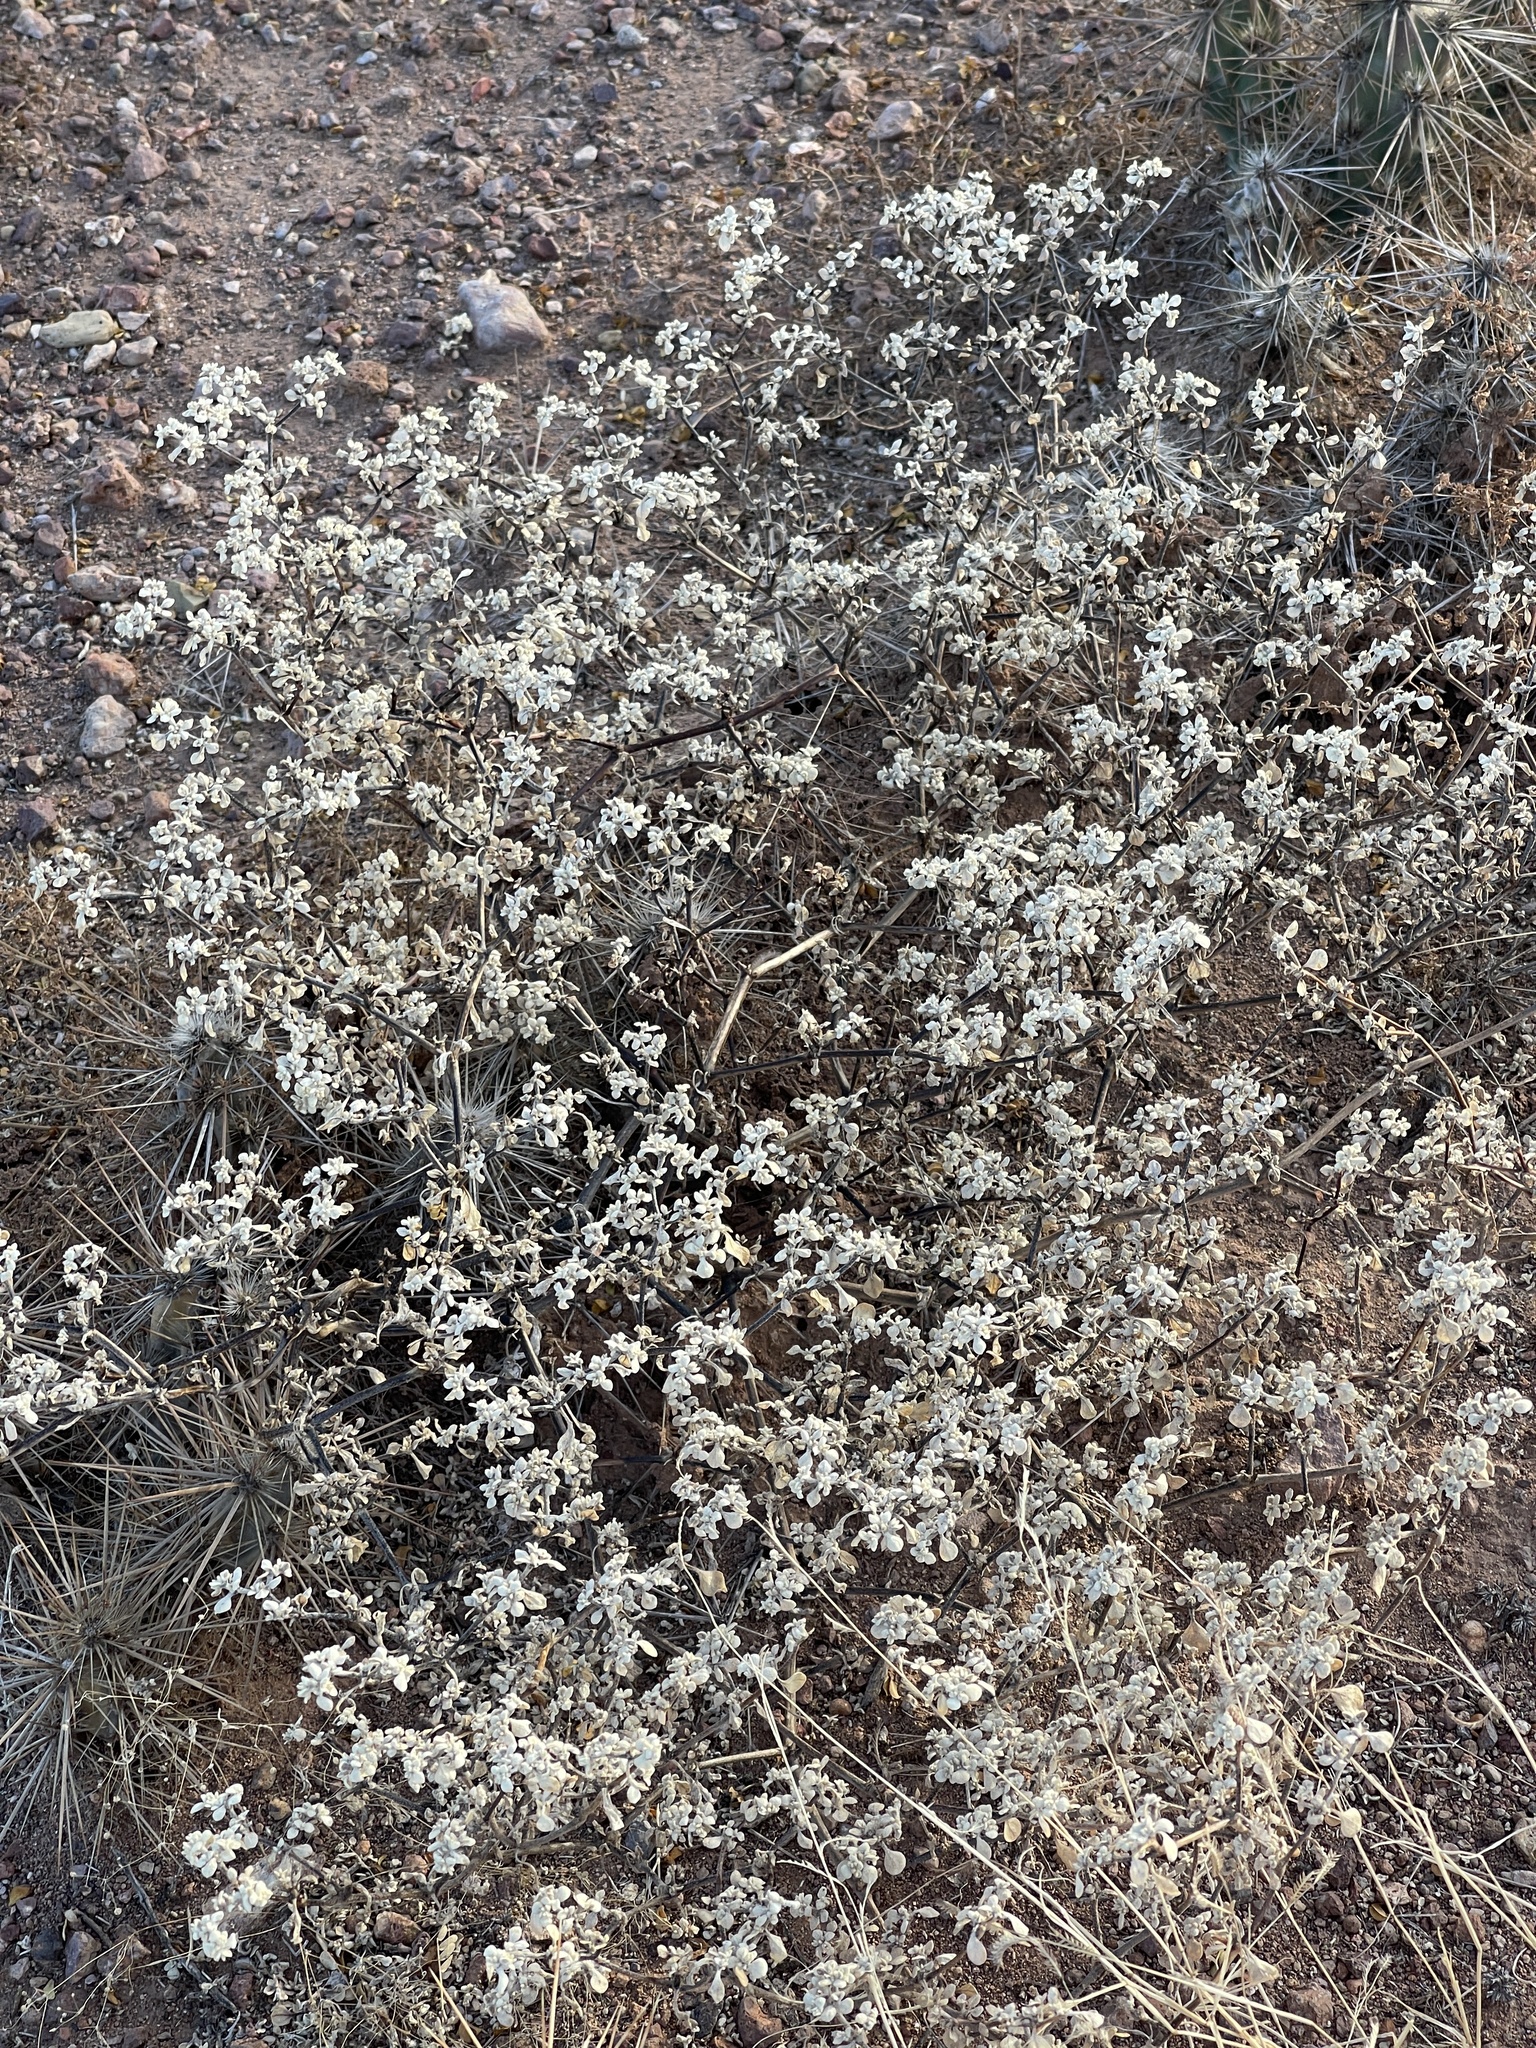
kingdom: Plantae
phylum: Tracheophyta
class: Magnoliopsida
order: Caryophyllales
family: Amaranthaceae
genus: Tidestromia
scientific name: Tidestromia lanuginosa
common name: Woolly tidestromia
